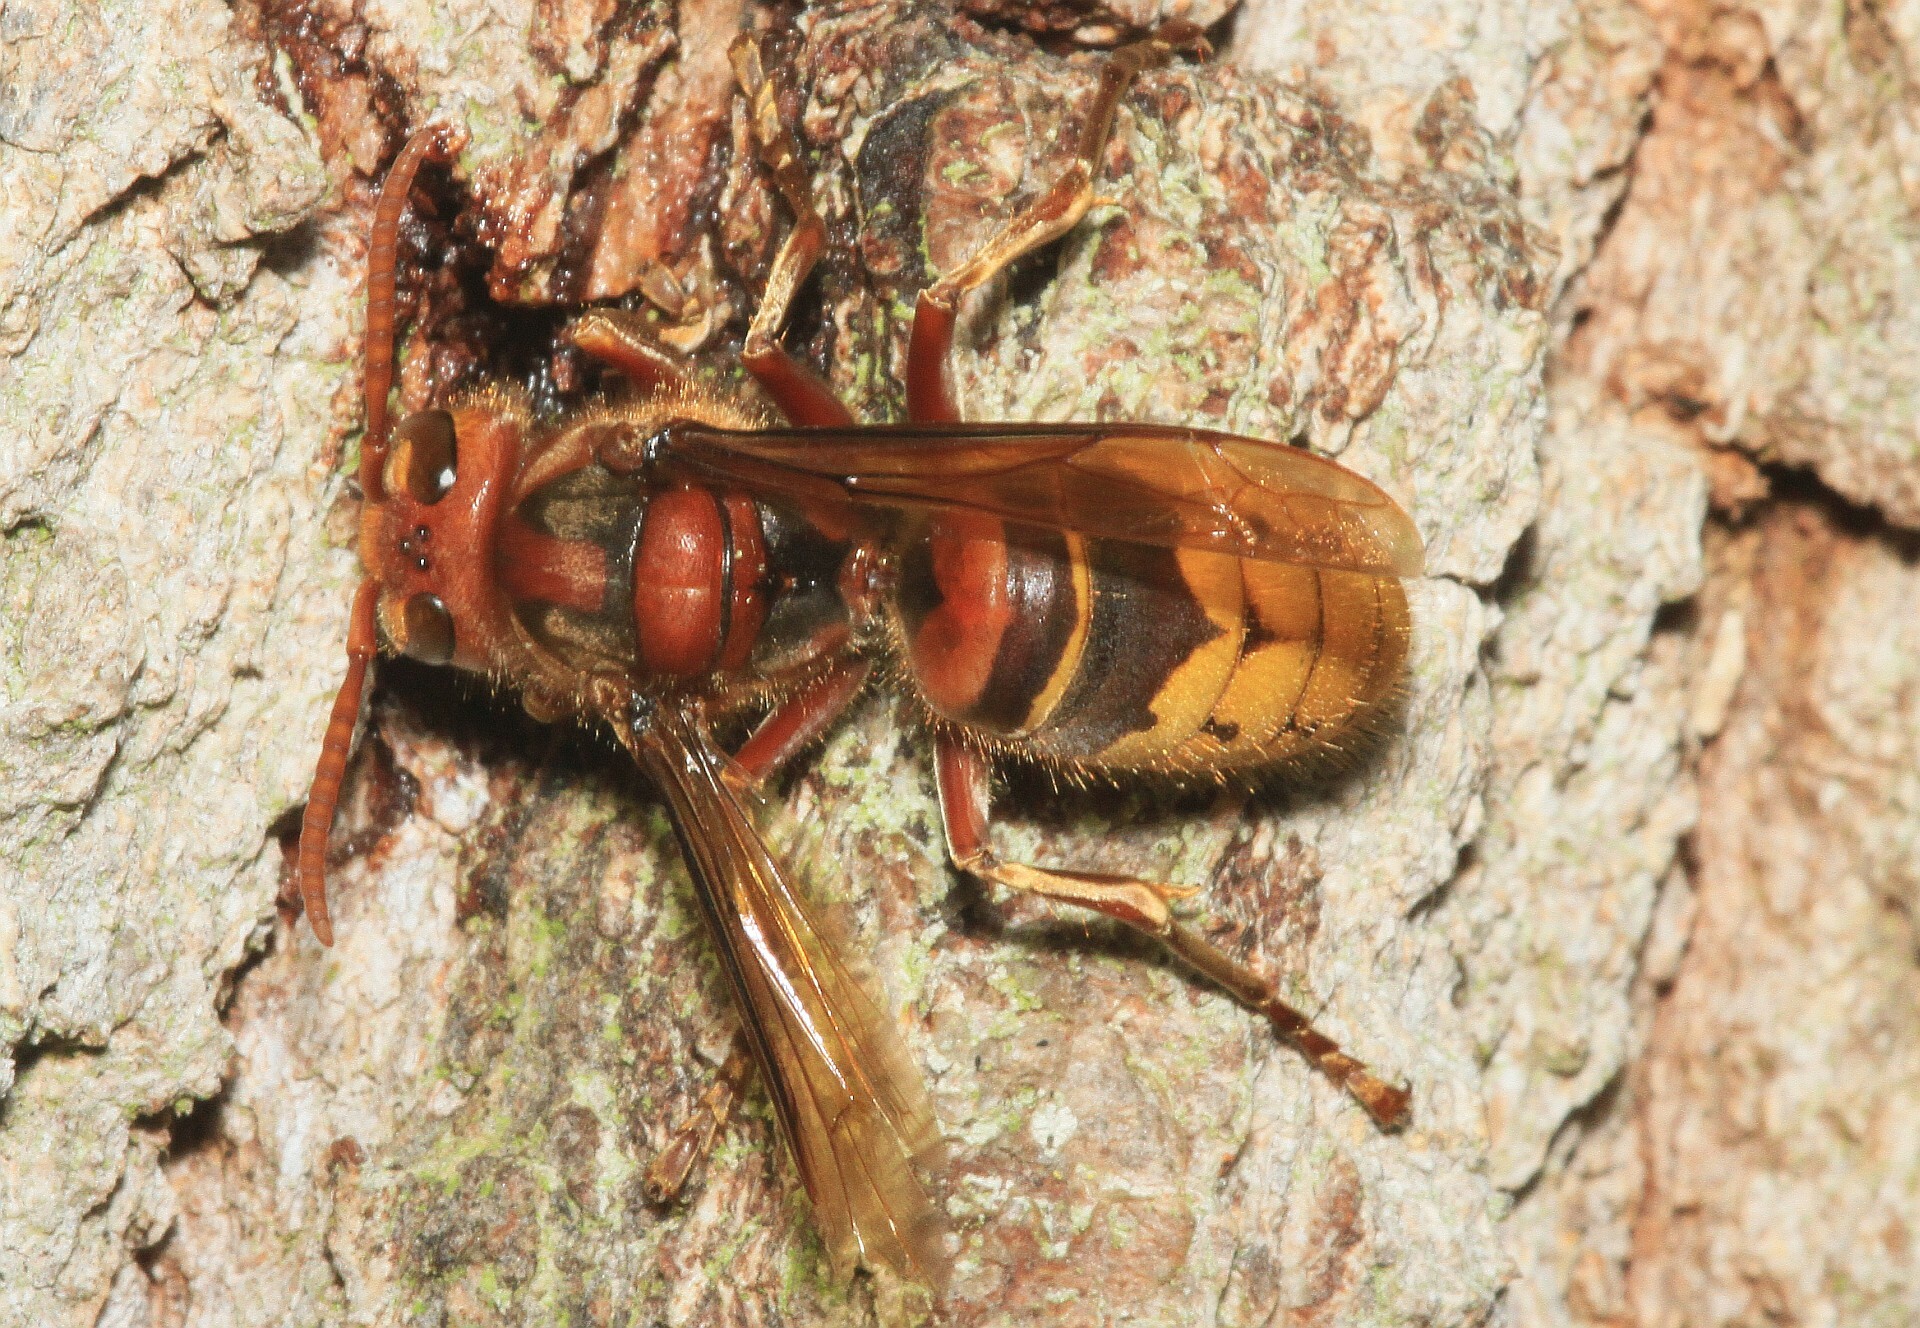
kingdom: Animalia
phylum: Arthropoda
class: Insecta
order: Hymenoptera
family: Vespidae
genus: Vespa
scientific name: Vespa crabro
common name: Hornet
